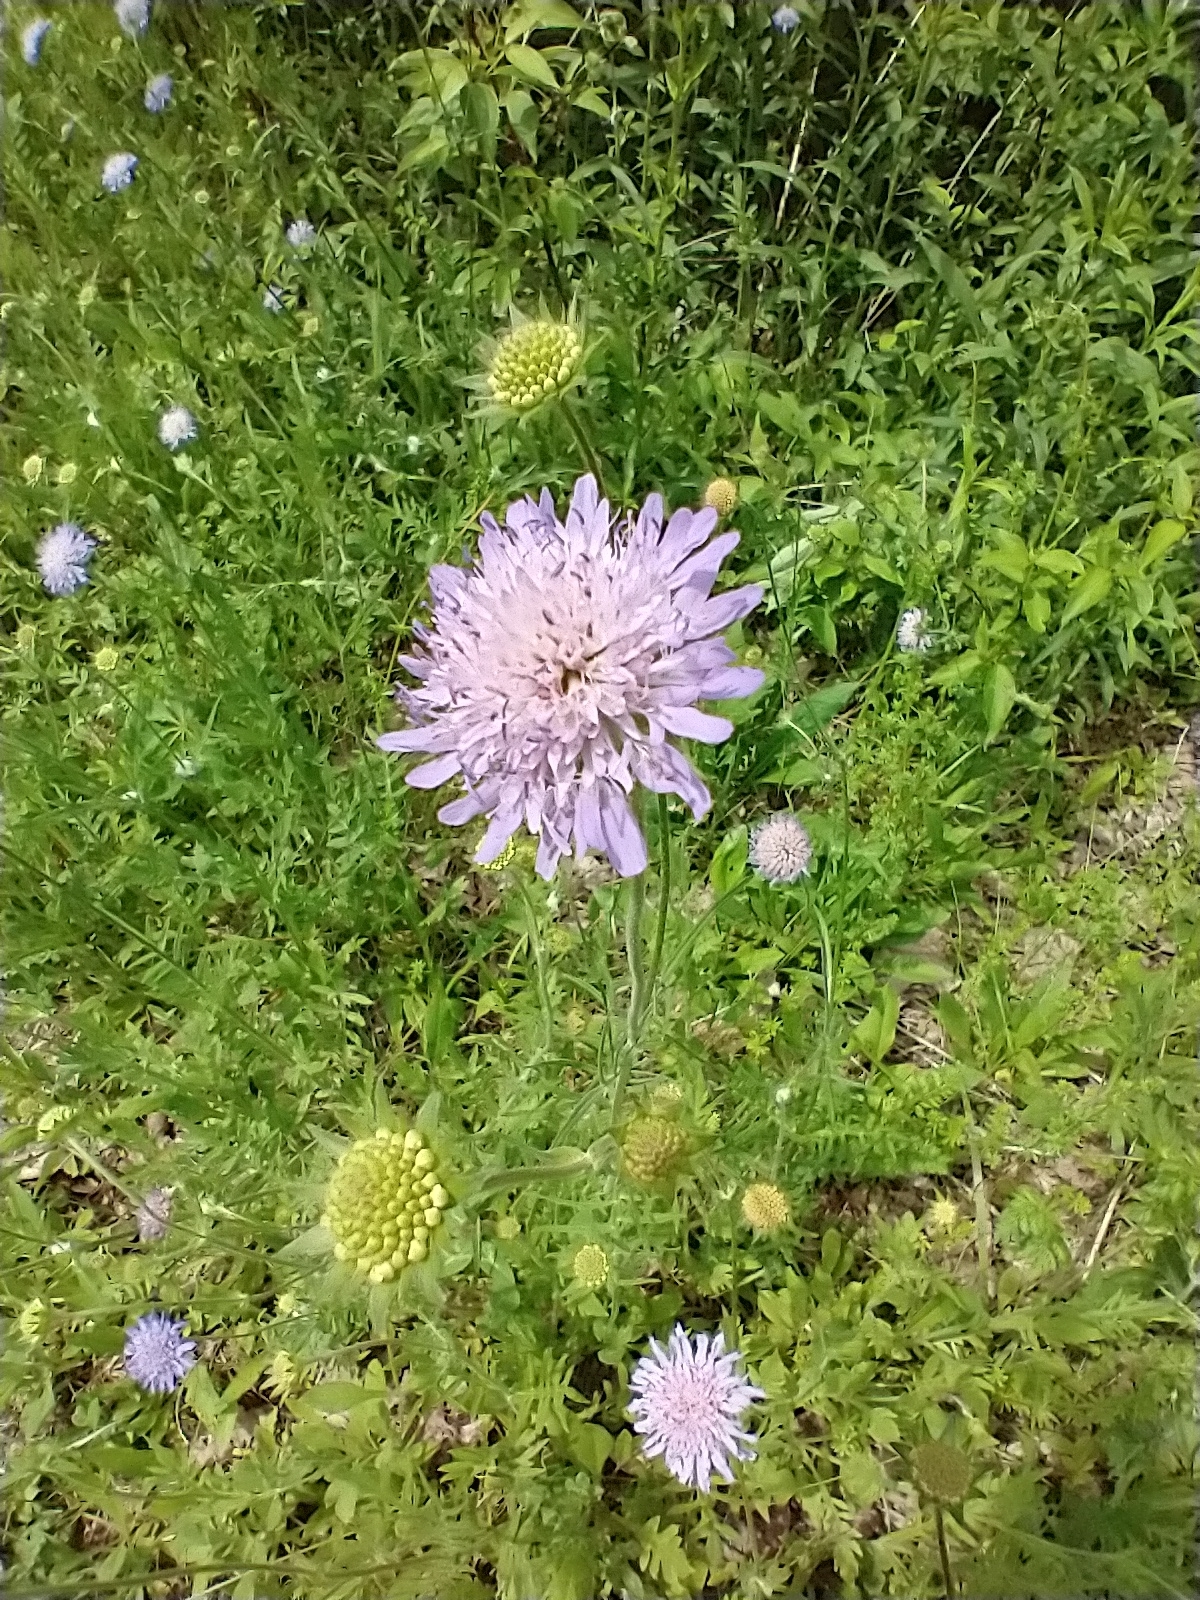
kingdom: Plantae
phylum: Tracheophyta
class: Magnoliopsida
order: Dipsacales
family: Caprifoliaceae
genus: Knautia
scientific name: Knautia arvensis
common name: Field scabiosa
